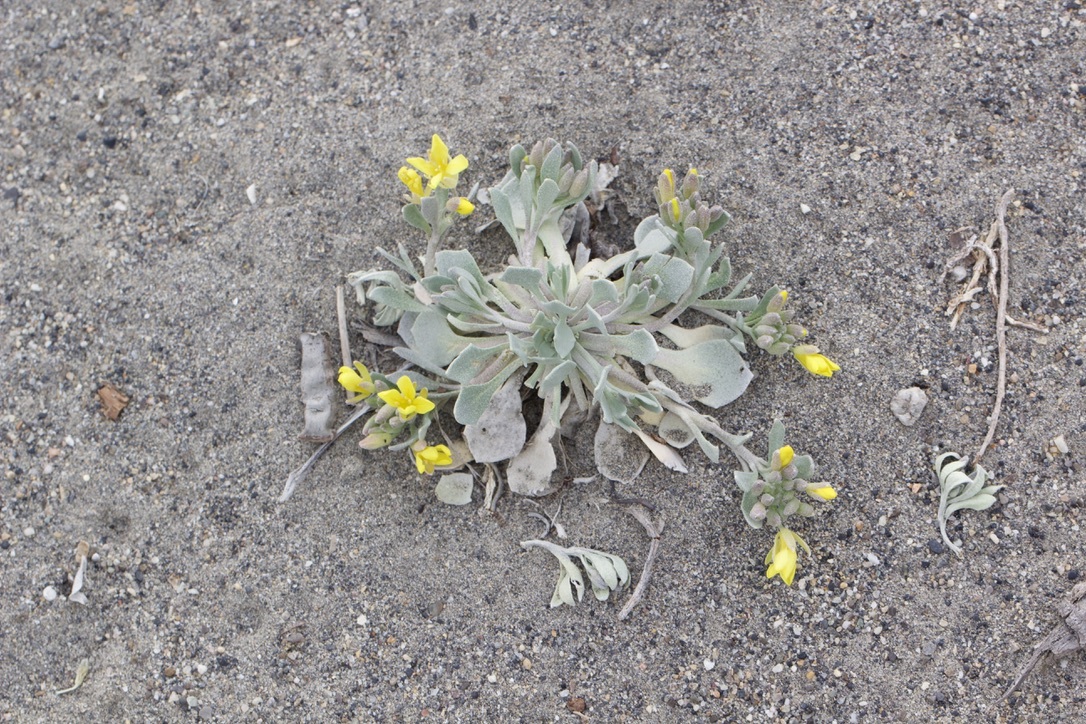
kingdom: Plantae
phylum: Tracheophyta
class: Magnoliopsida
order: Brassicales
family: Brassicaceae
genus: Physaria
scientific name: Physaria didymocarpa
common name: Common twinpod
